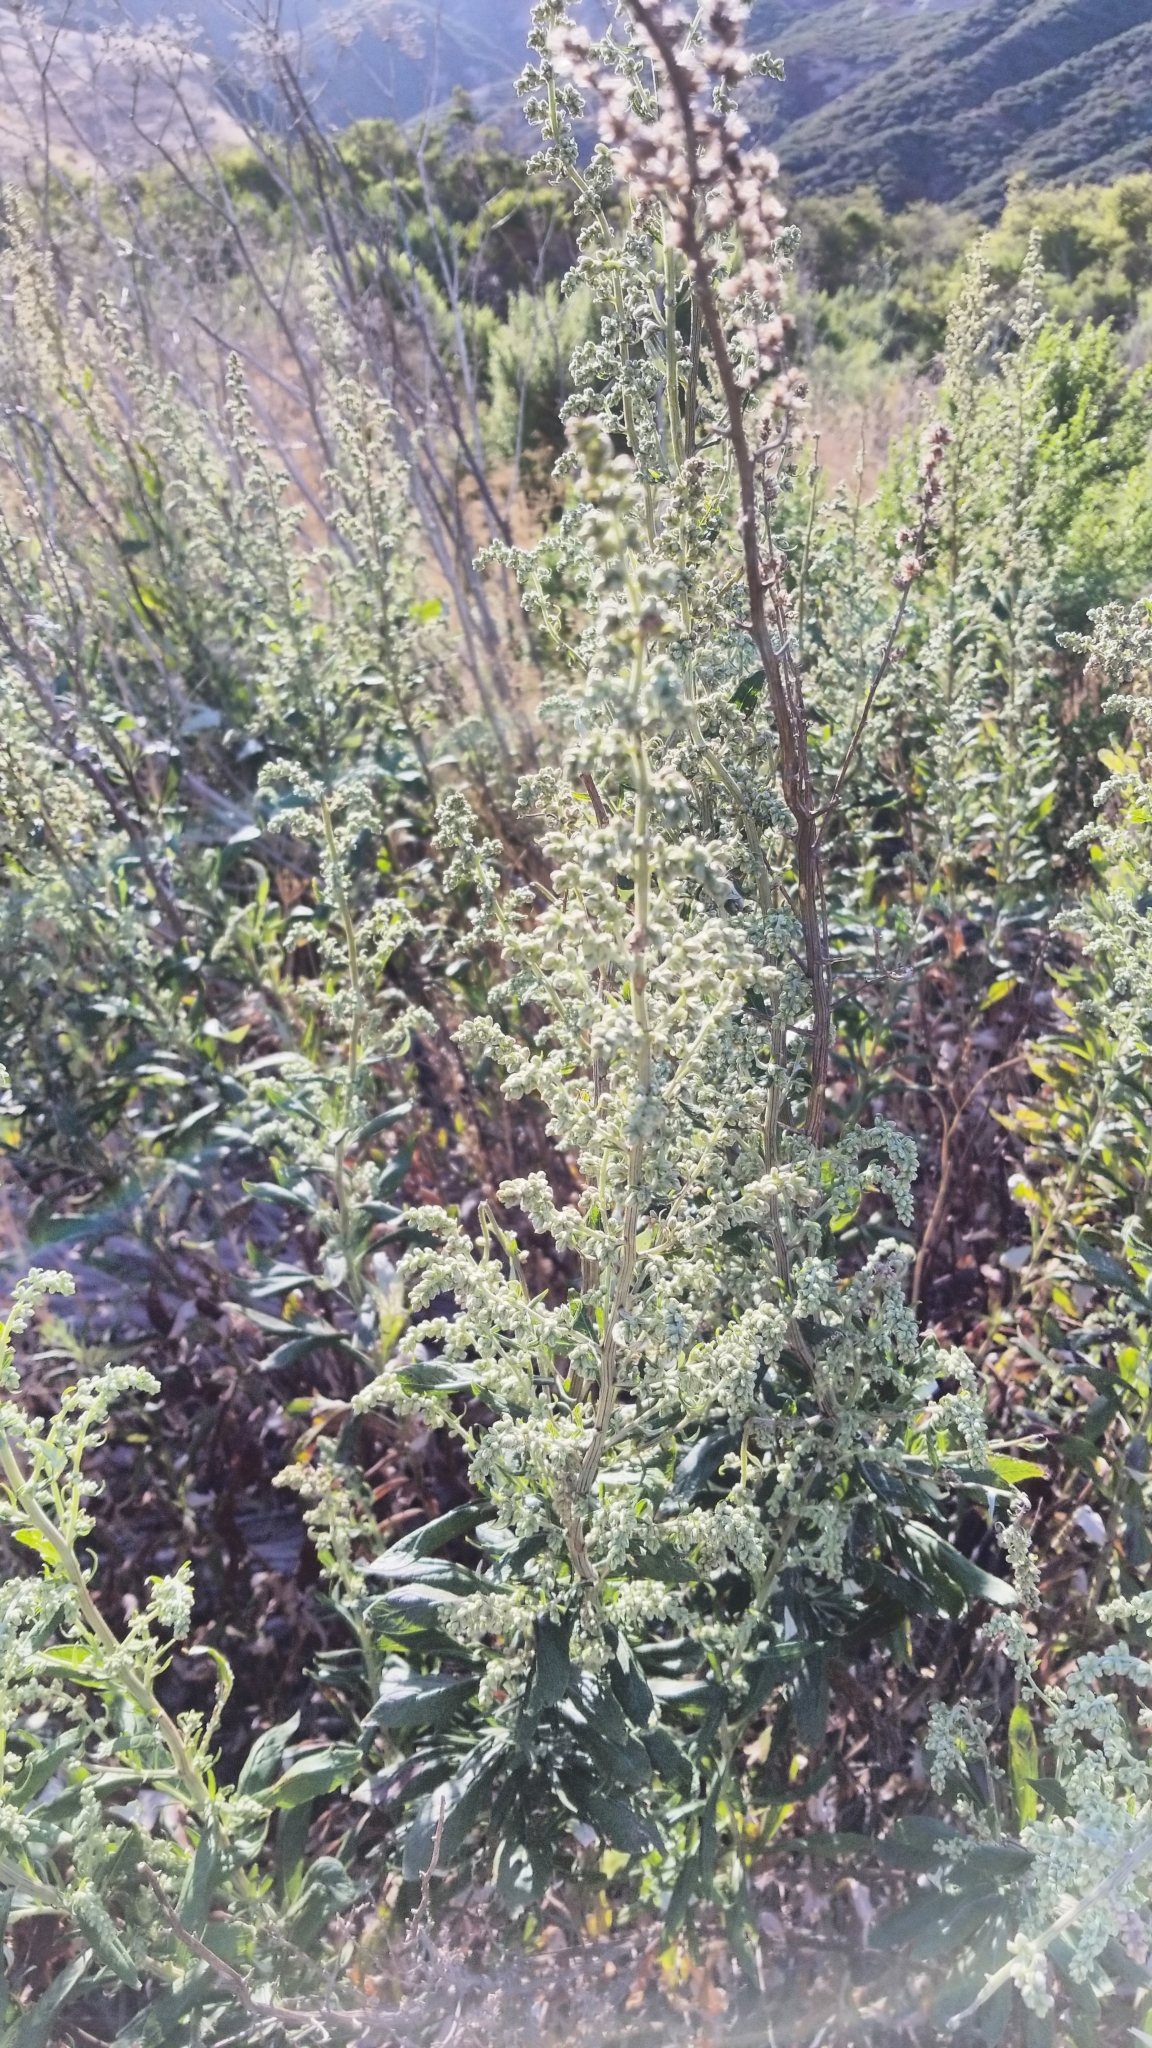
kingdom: Plantae
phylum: Tracheophyta
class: Magnoliopsida
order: Asterales
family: Asteraceae
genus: Artemisia
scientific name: Artemisia douglasiana
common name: Northwest mugwort
